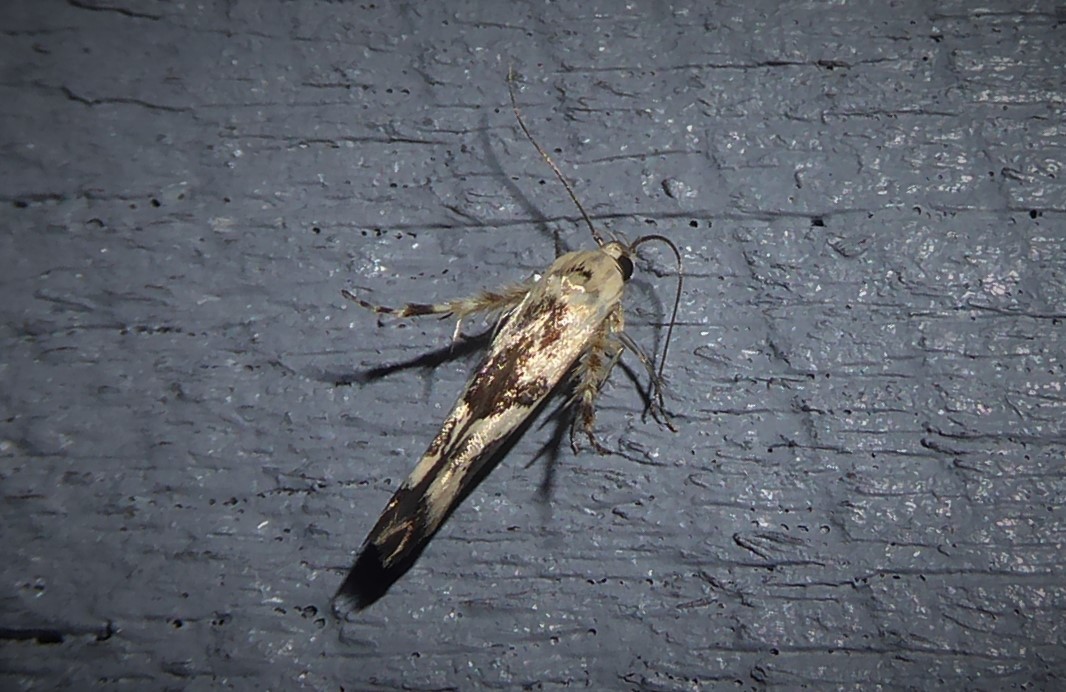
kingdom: Animalia
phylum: Arthropoda
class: Insecta
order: Lepidoptera
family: Stathmopodidae
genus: Stathmopoda
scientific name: Stathmopoda melanochra
